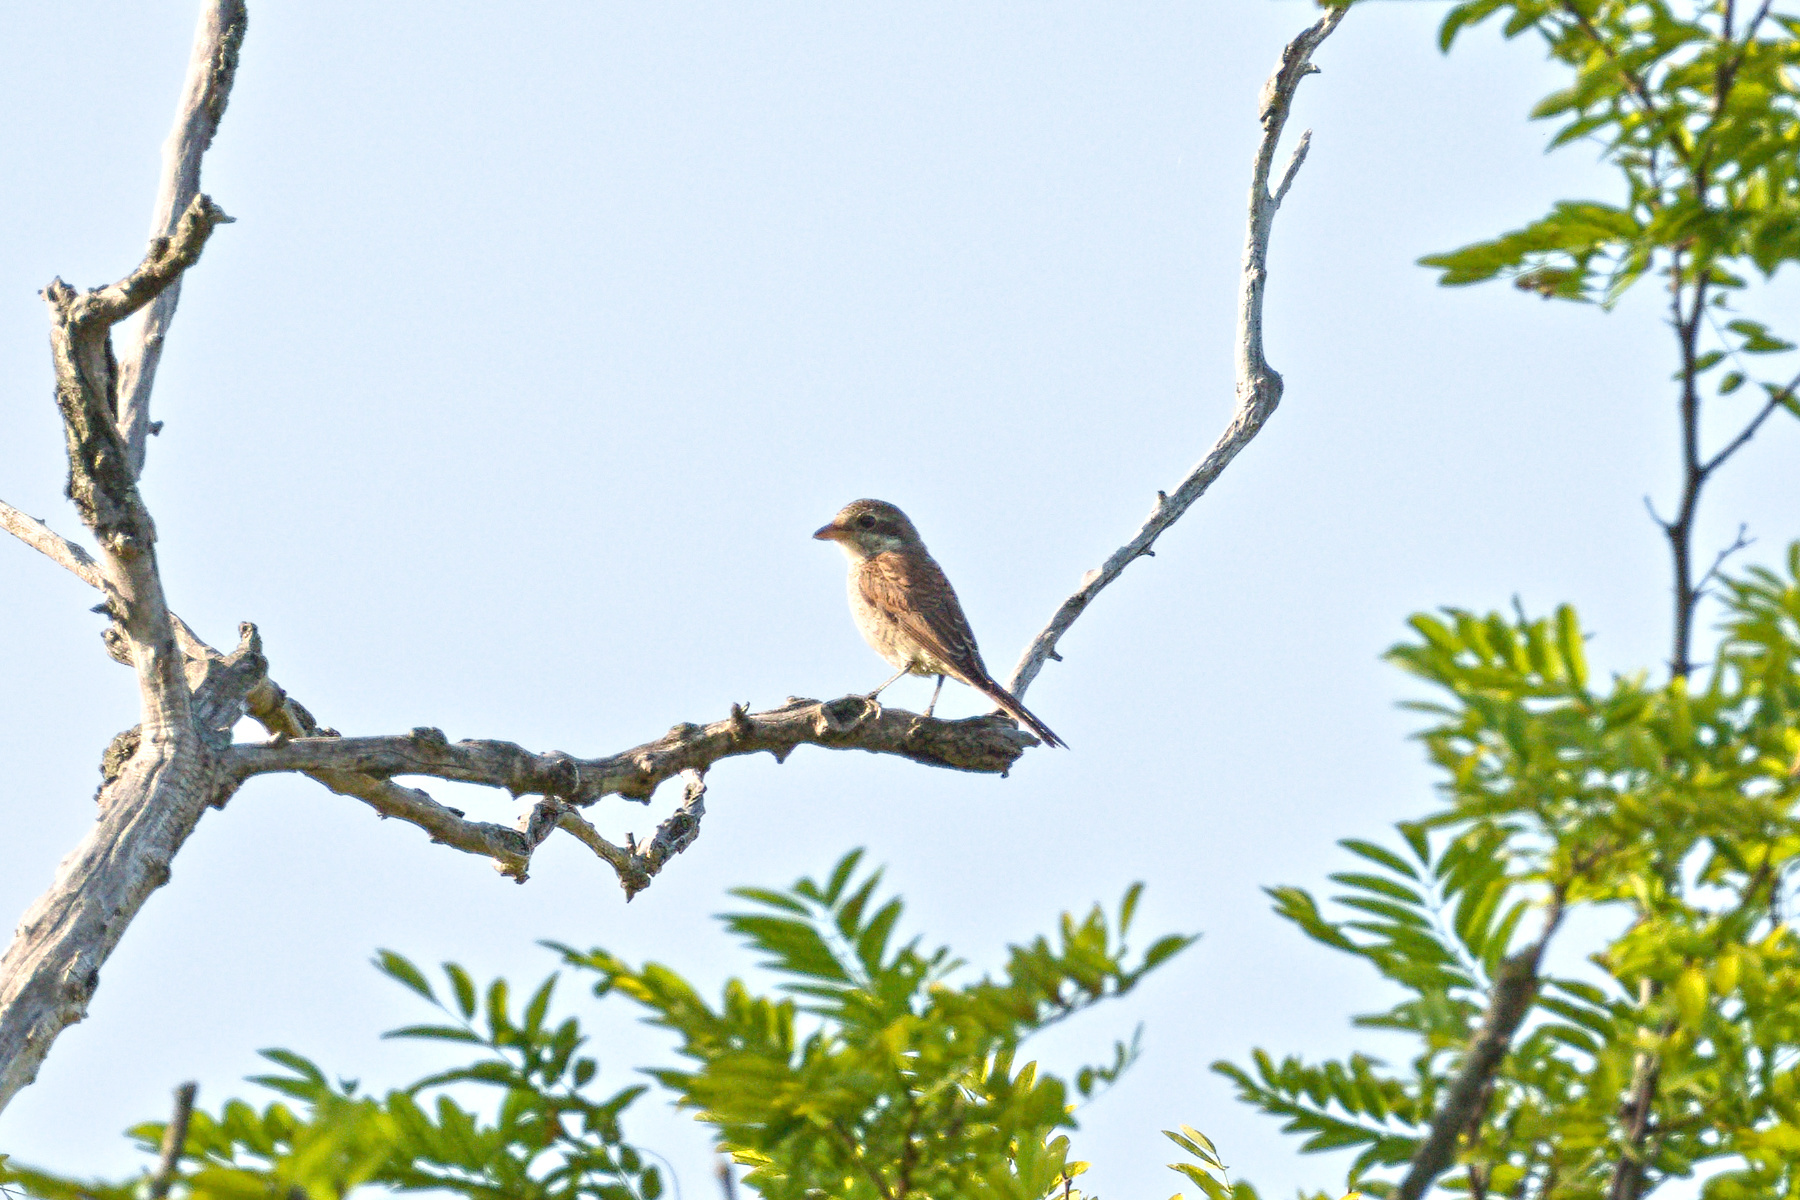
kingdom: Animalia
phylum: Chordata
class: Aves
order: Passeriformes
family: Laniidae
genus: Lanius
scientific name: Lanius collurio
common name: Red-backed shrike
